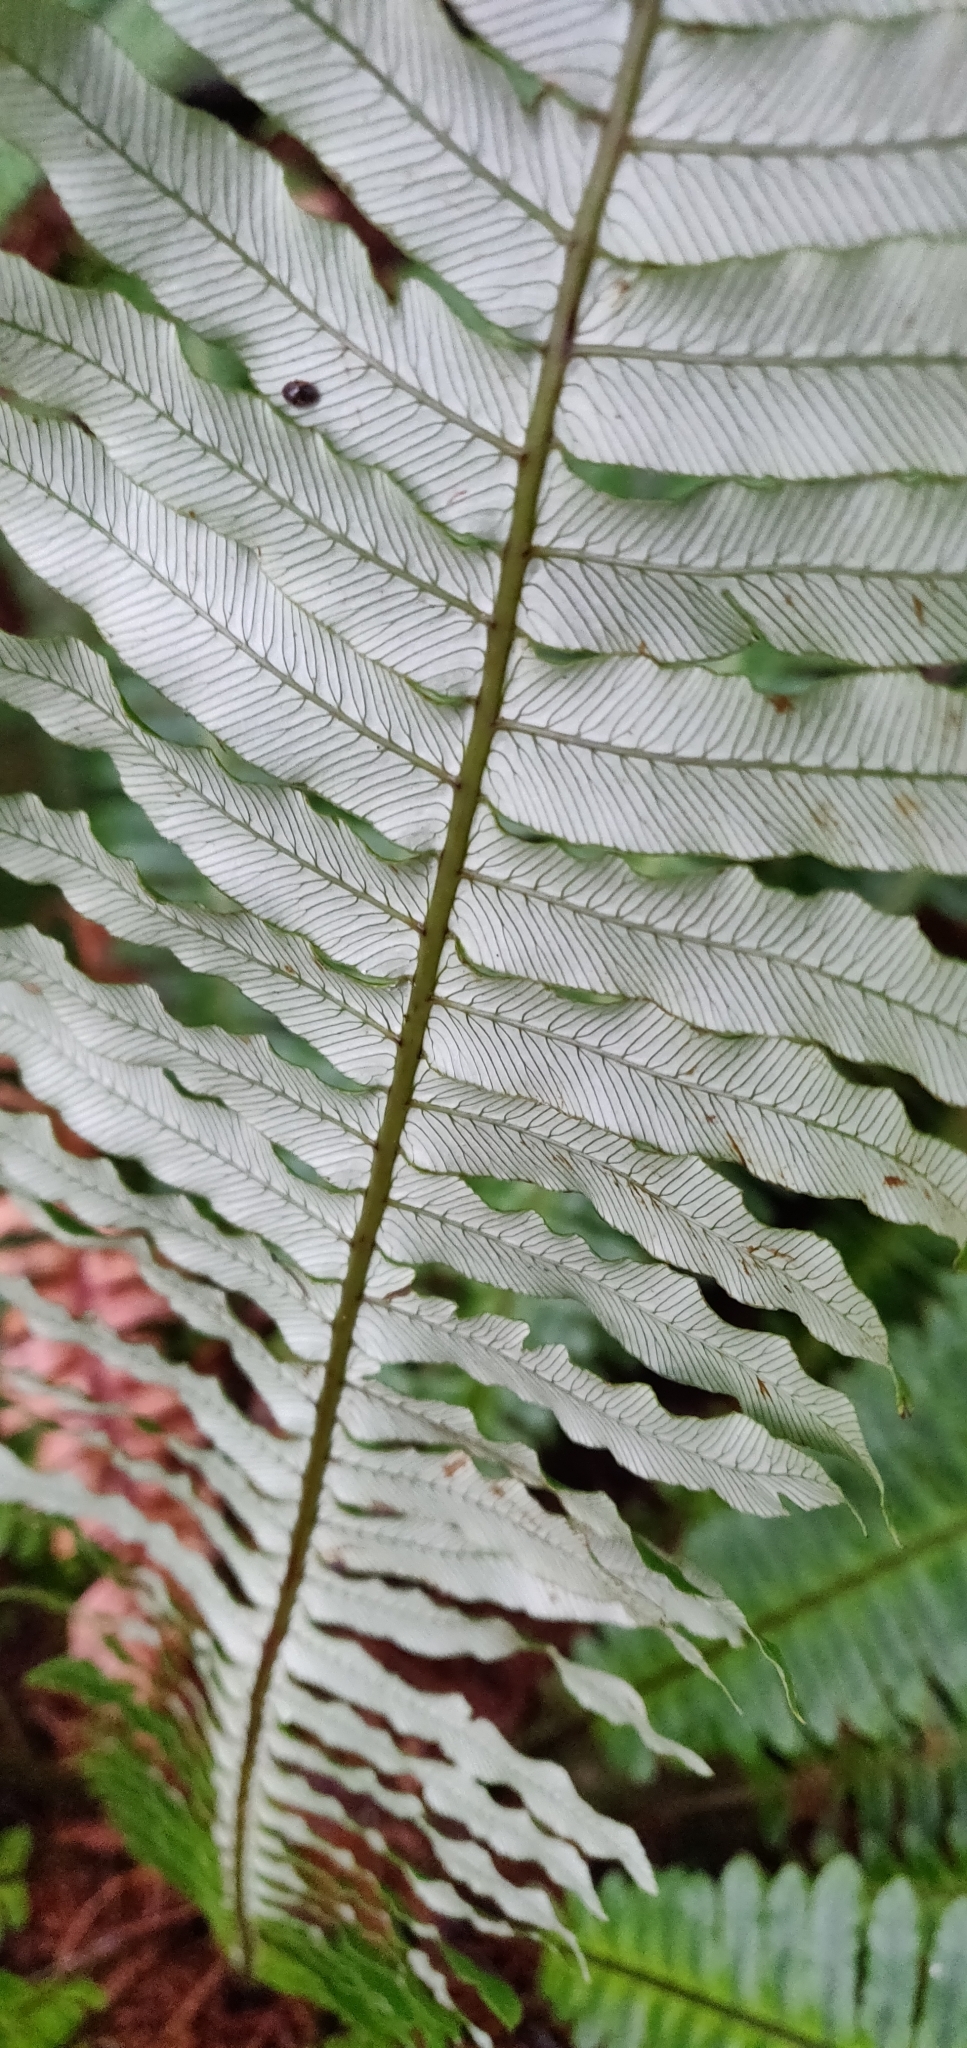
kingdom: Plantae
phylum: Tracheophyta
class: Polypodiopsida
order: Polypodiales
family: Blechnaceae
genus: Lomaria
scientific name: Lomaria discolor
